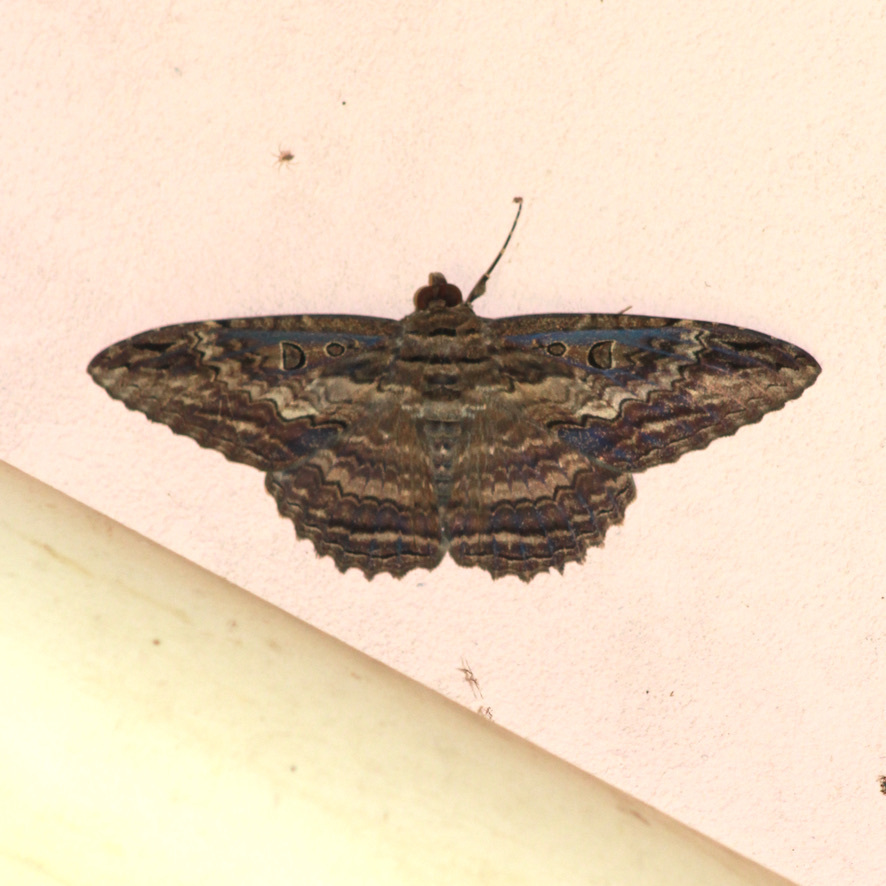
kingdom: Animalia
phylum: Arthropoda
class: Insecta
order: Lepidoptera
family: Erebidae
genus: Feigeria
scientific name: Feigeria buteo
